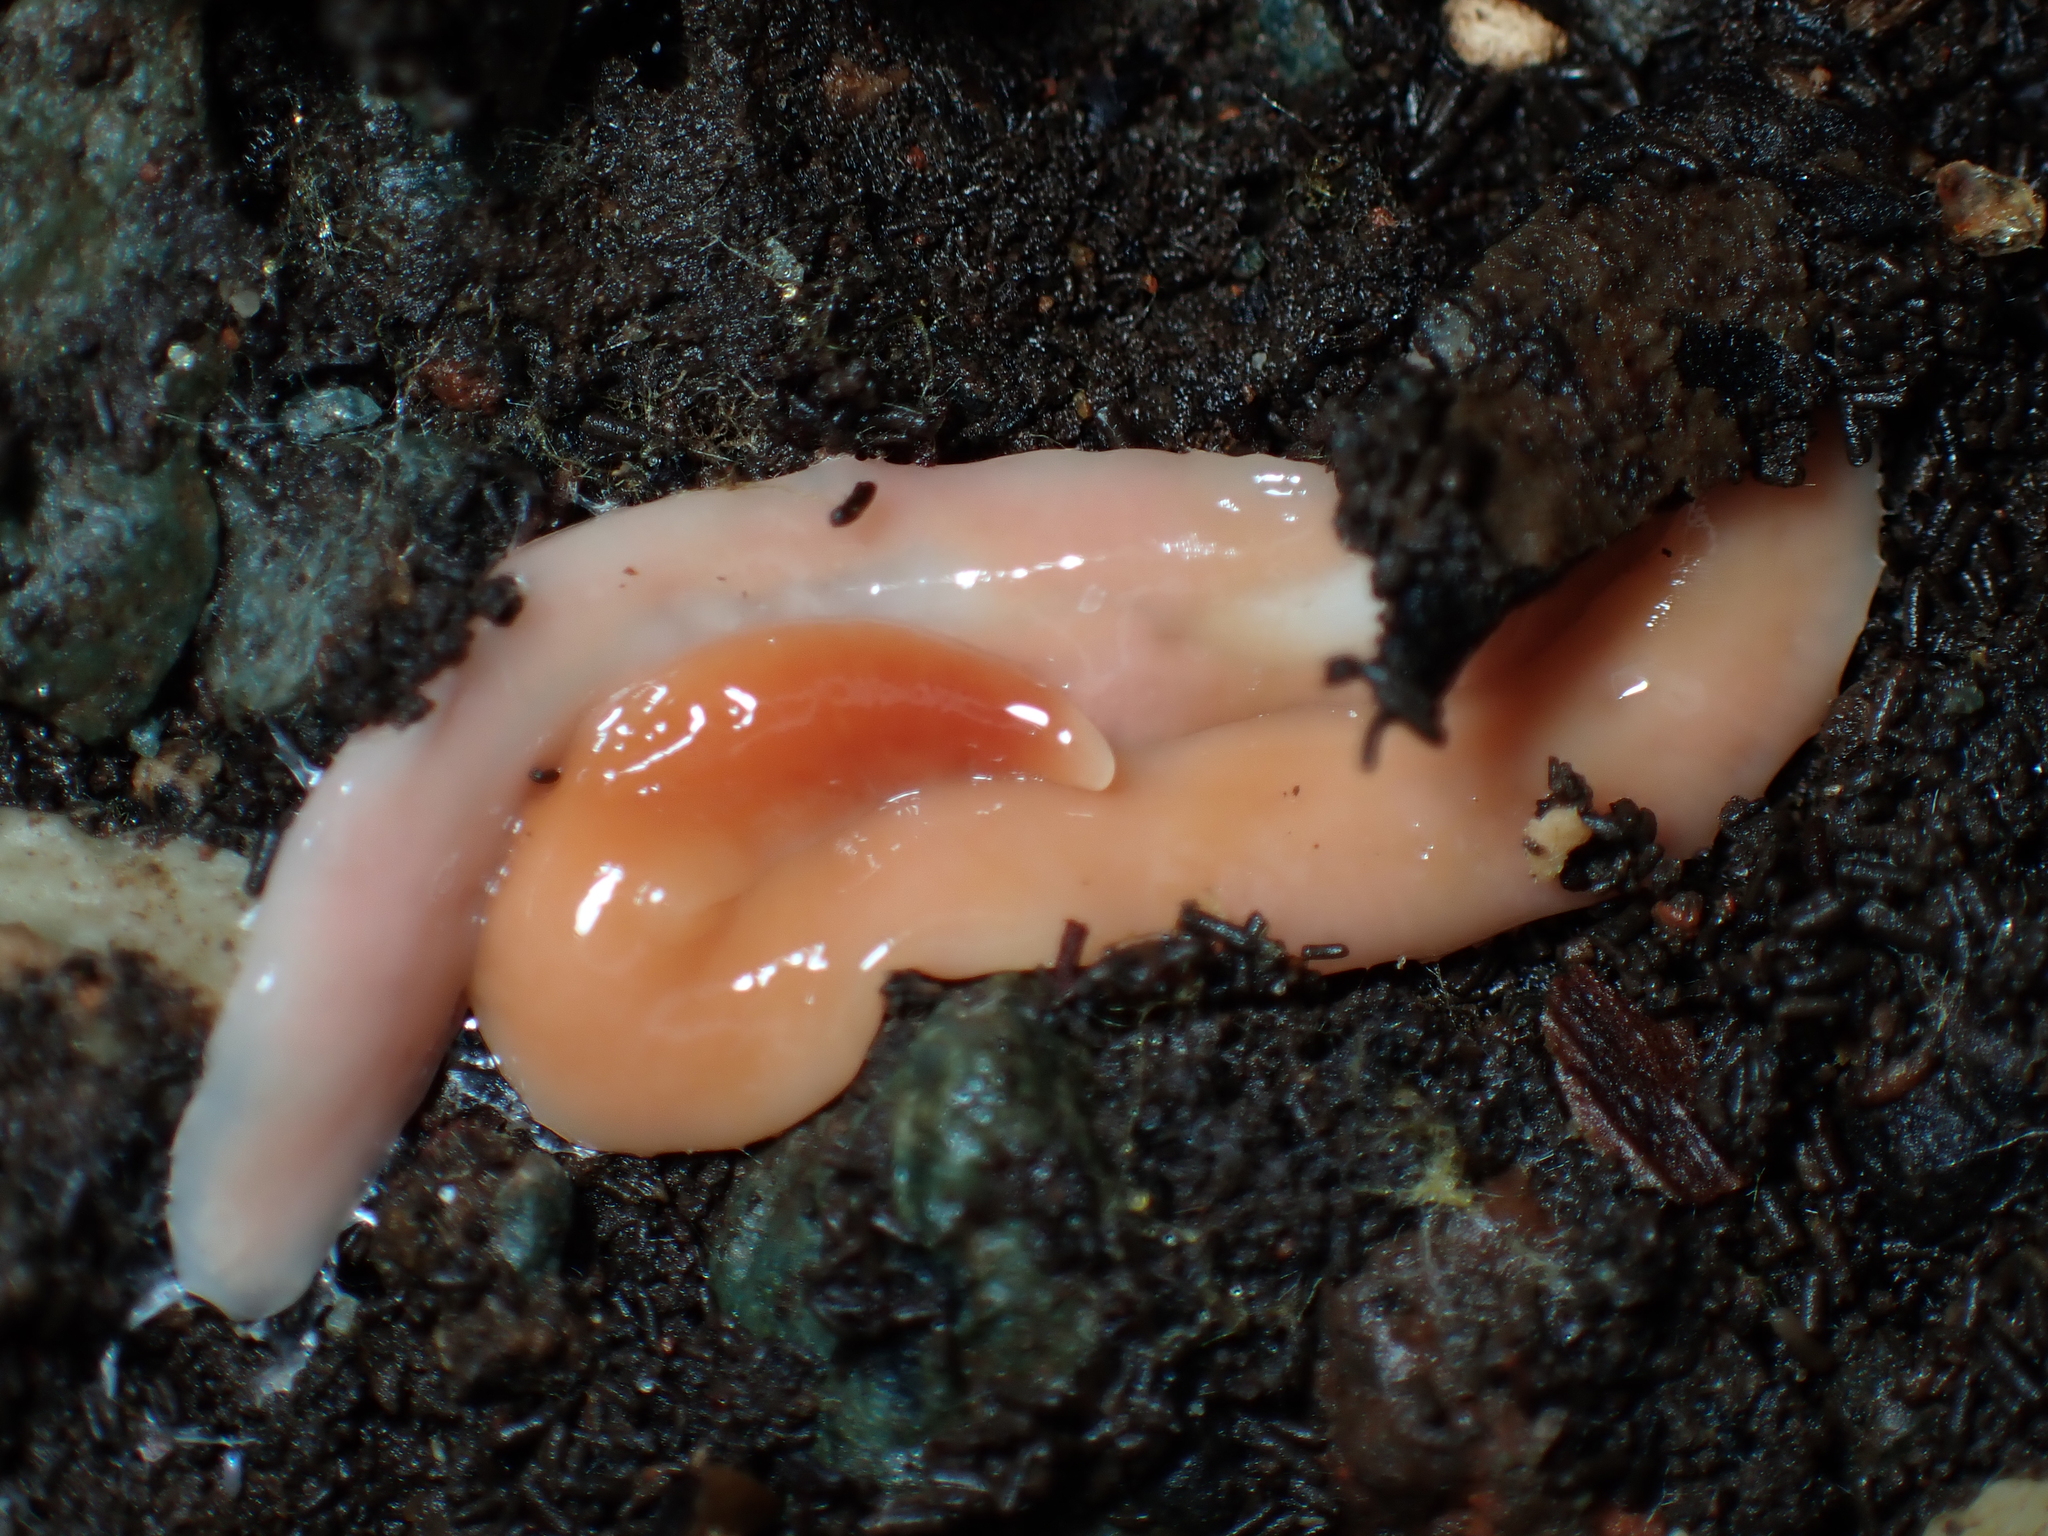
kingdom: Animalia
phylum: Platyhelminthes
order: Tricladida
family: Geoplanidae
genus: Australoplana
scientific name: Australoplana alba
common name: Australian flatworm
